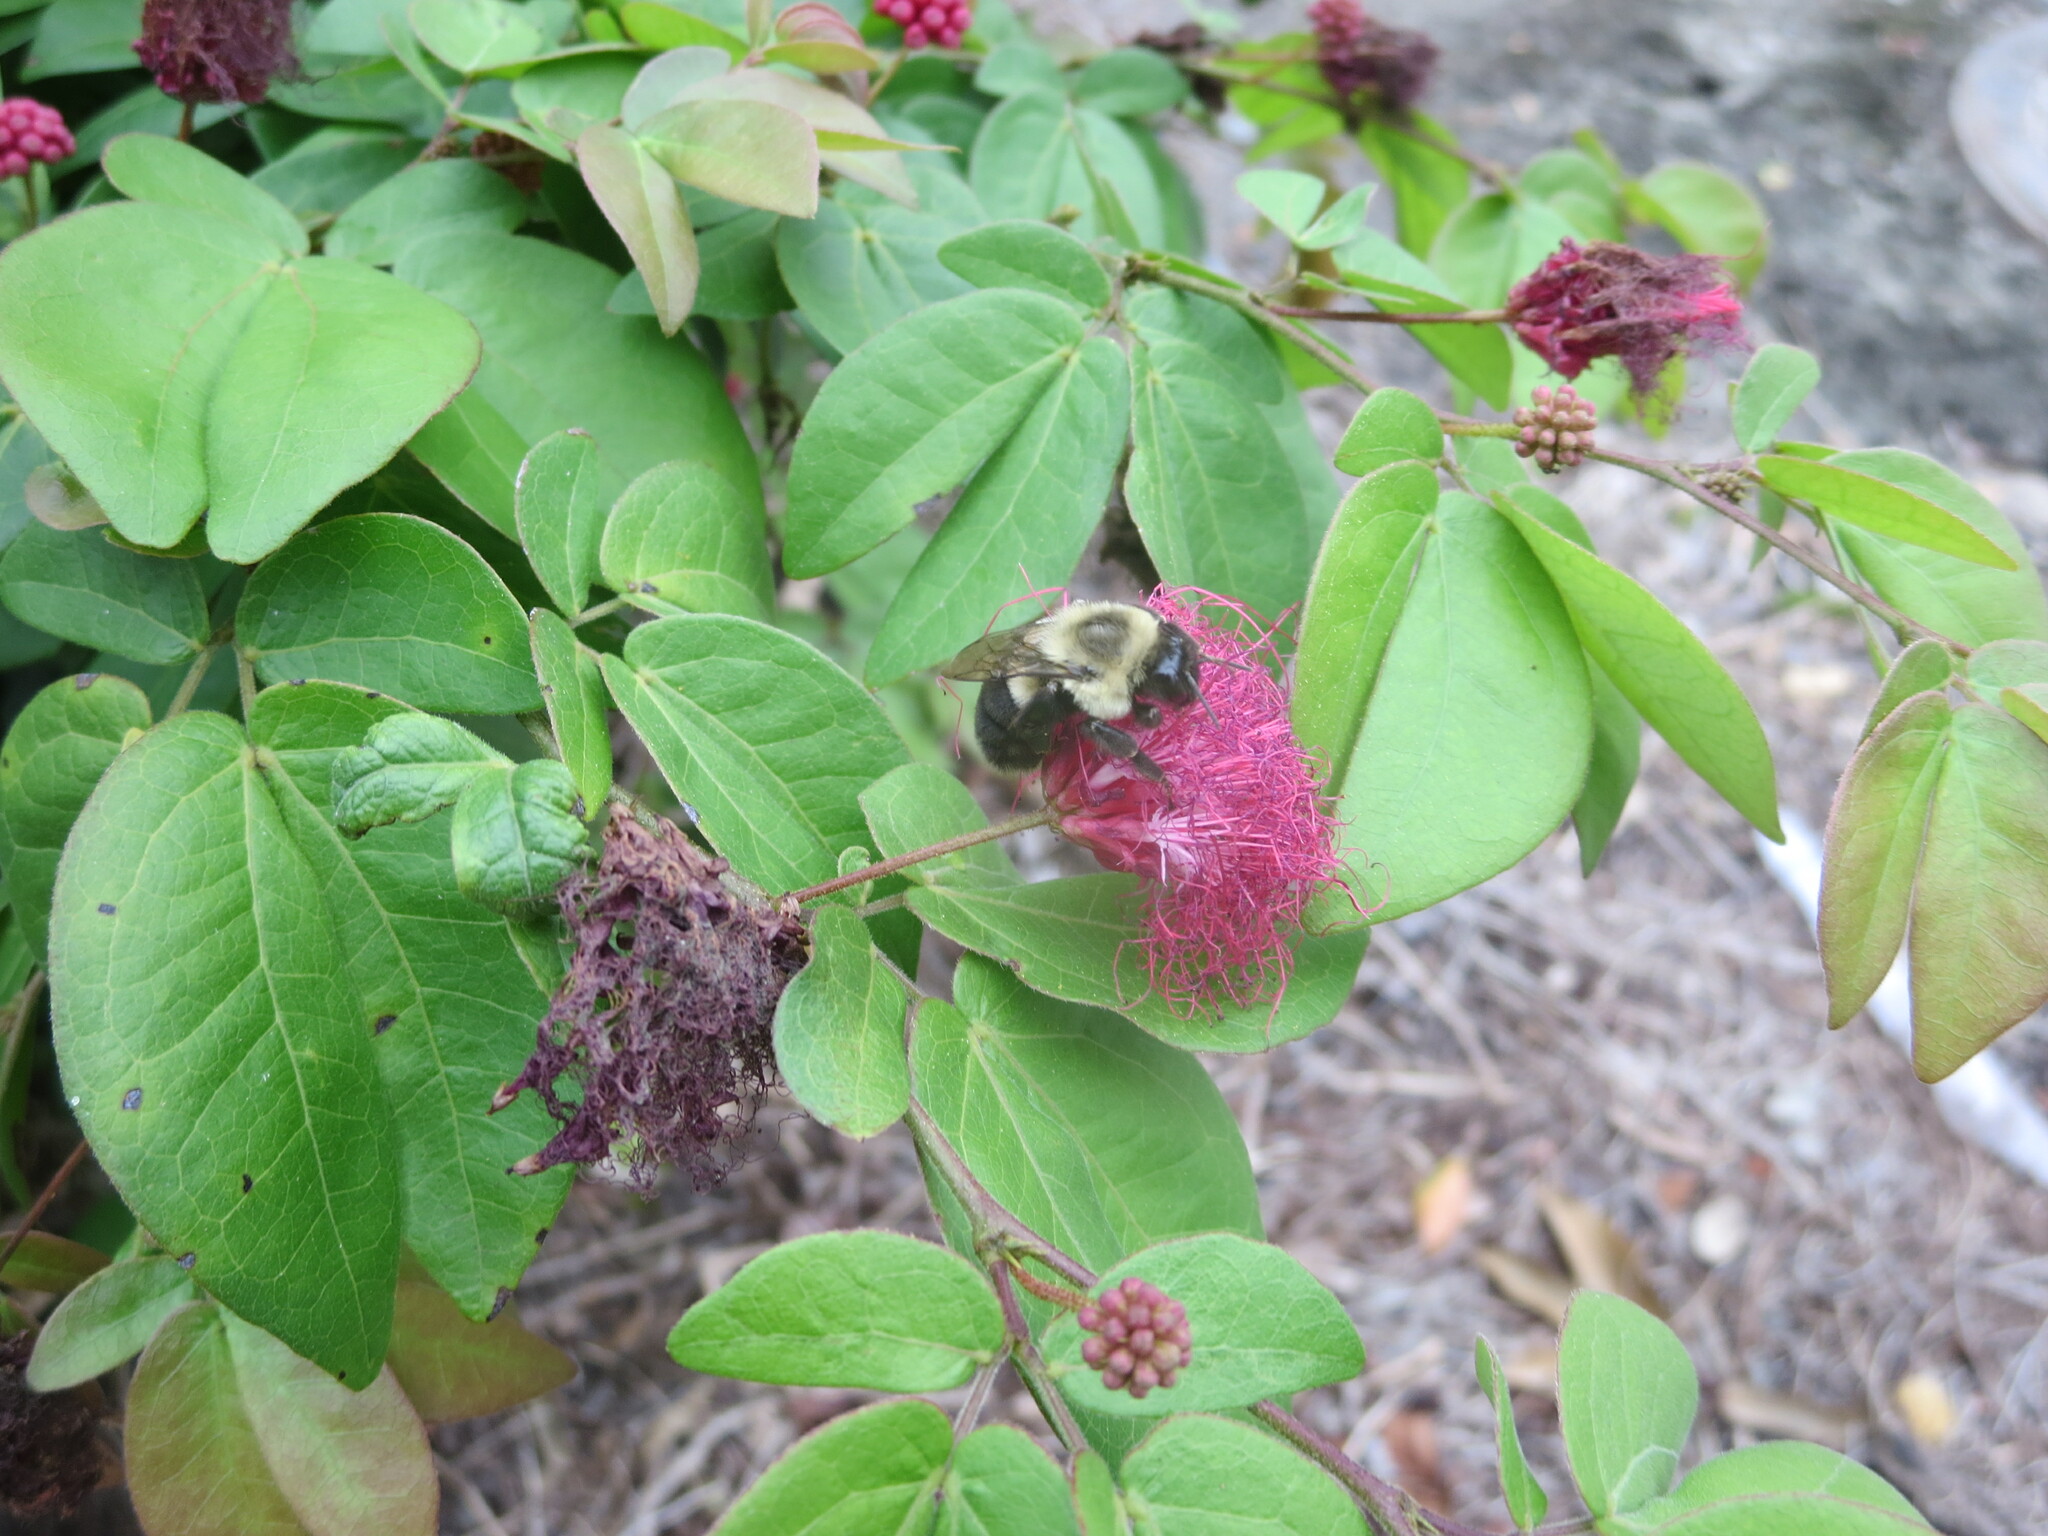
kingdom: Animalia
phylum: Arthropoda
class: Insecta
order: Hymenoptera
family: Apidae
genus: Bombus
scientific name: Bombus impatiens
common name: Common eastern bumble bee
